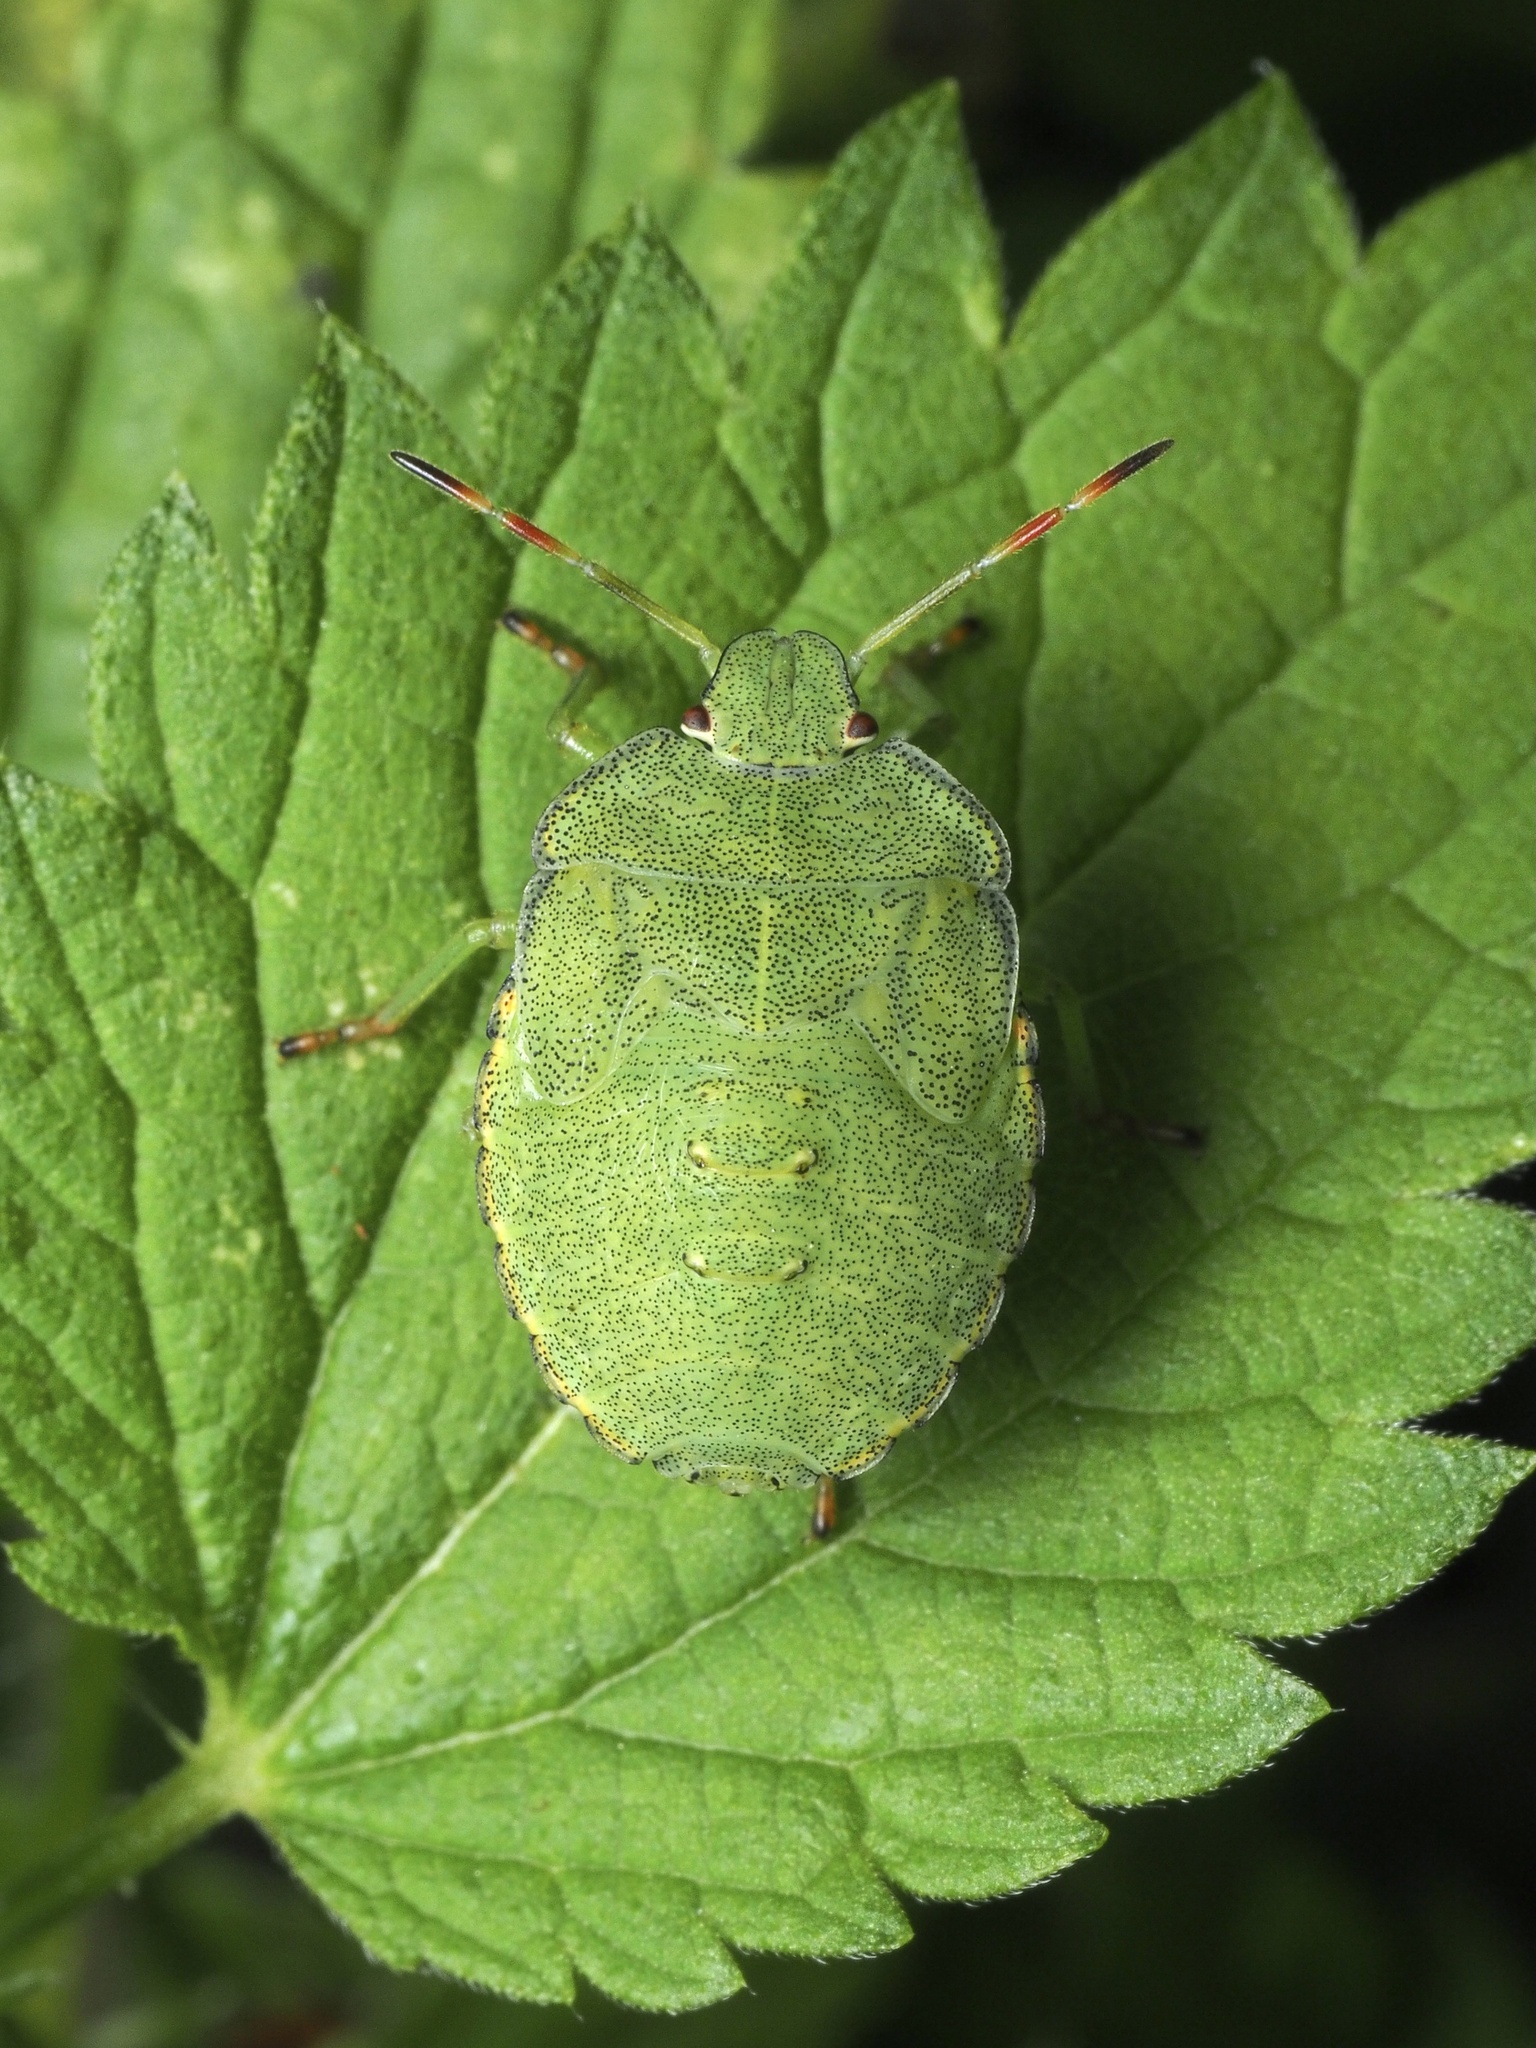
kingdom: Animalia
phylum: Arthropoda
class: Insecta
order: Hemiptera
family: Pentatomidae
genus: Palomena
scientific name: Palomena prasina
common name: Green shieldbug
